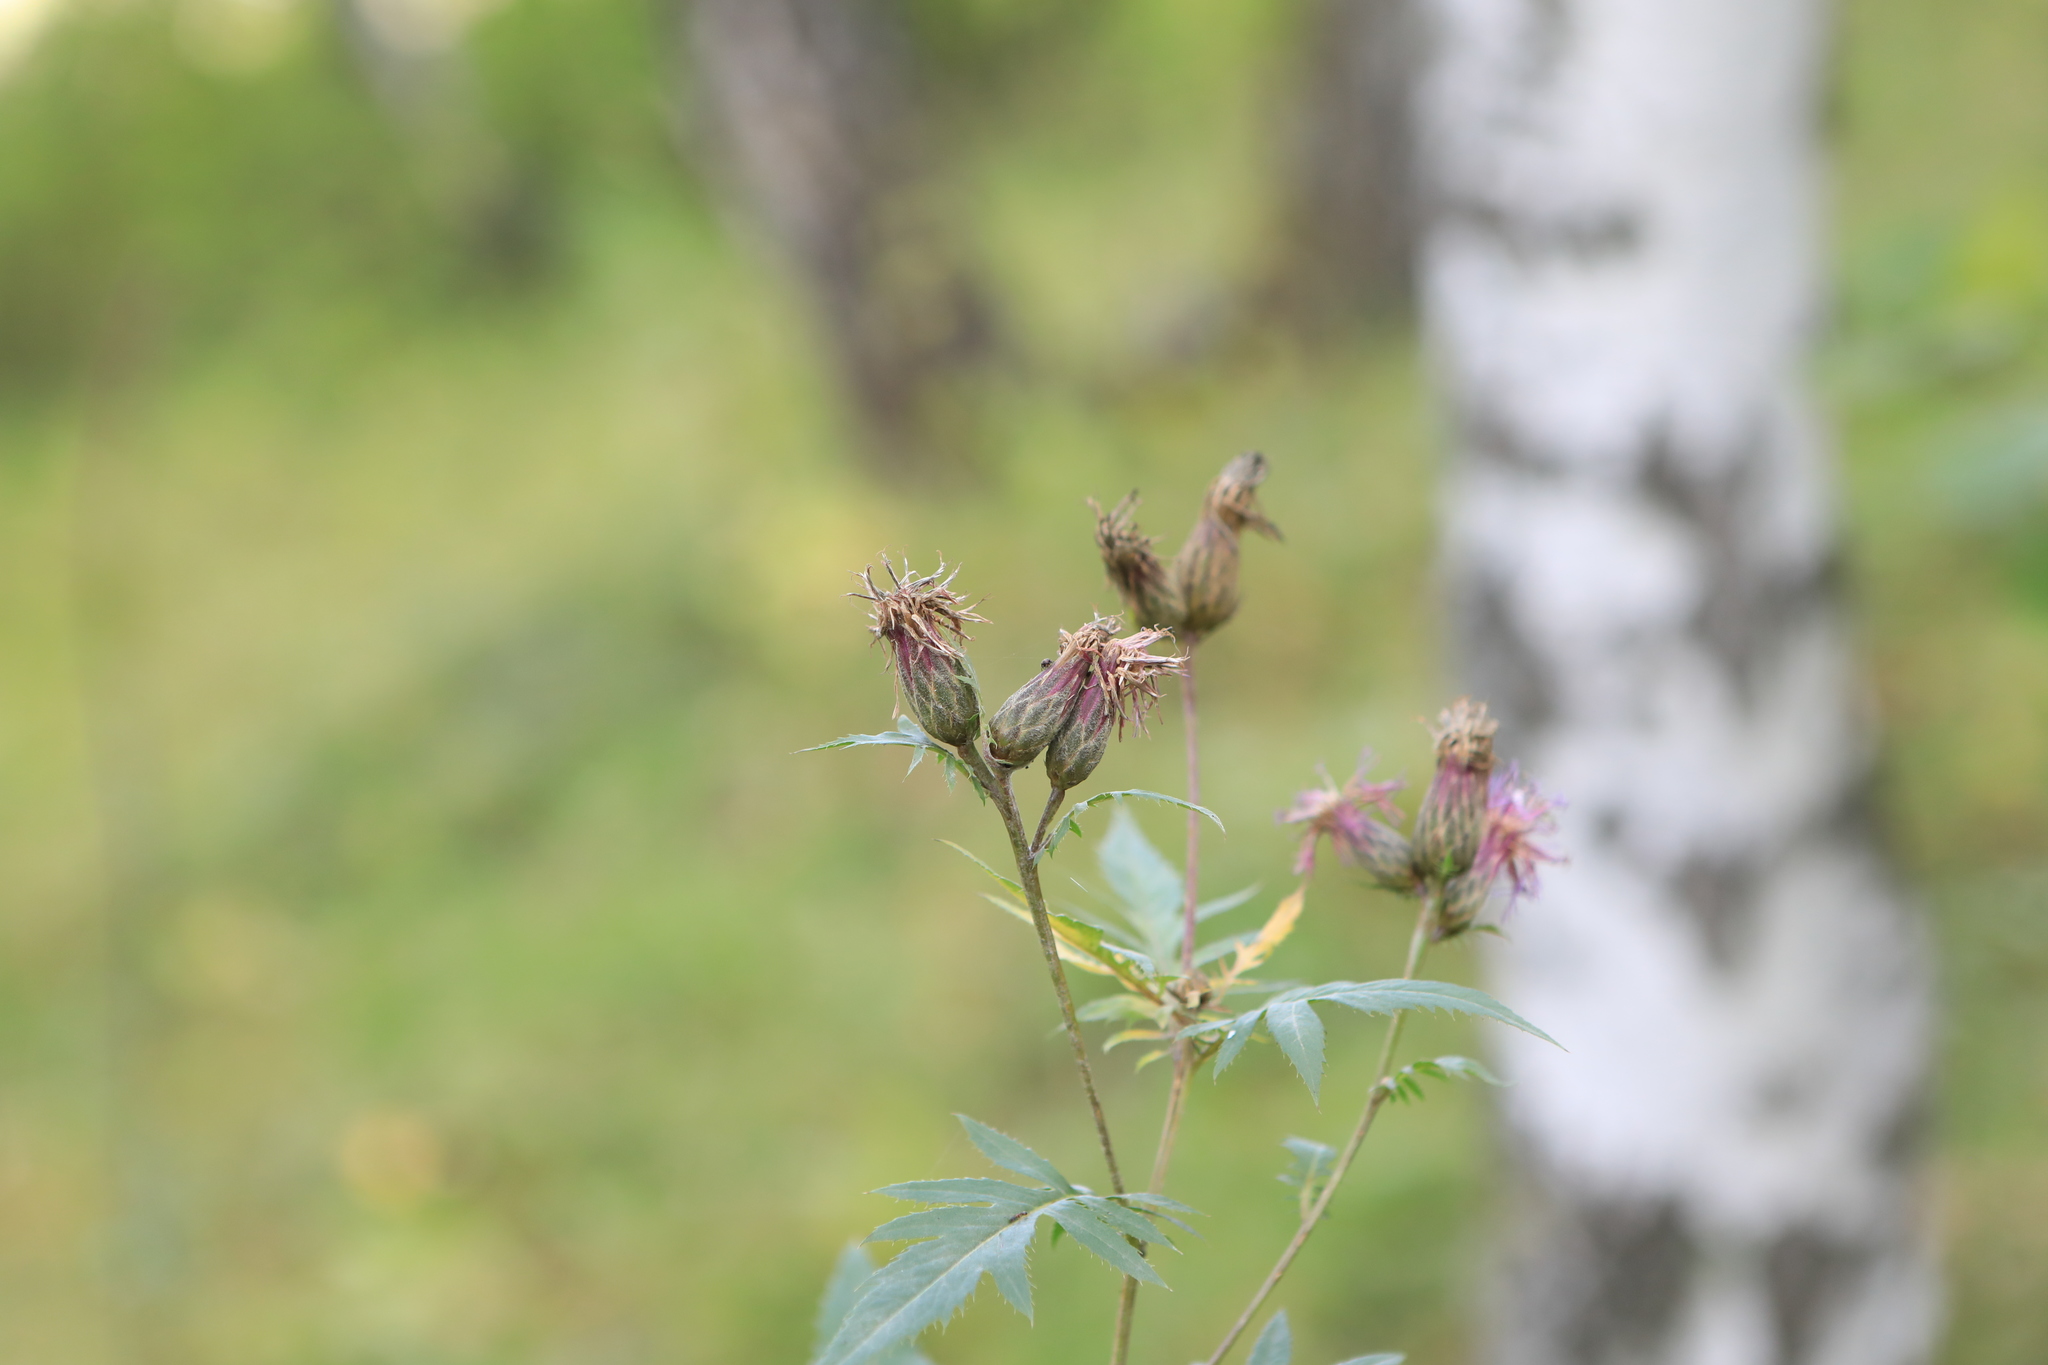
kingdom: Plantae
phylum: Tracheophyta
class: Magnoliopsida
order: Asterales
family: Asteraceae
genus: Serratula
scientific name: Serratula coronata
